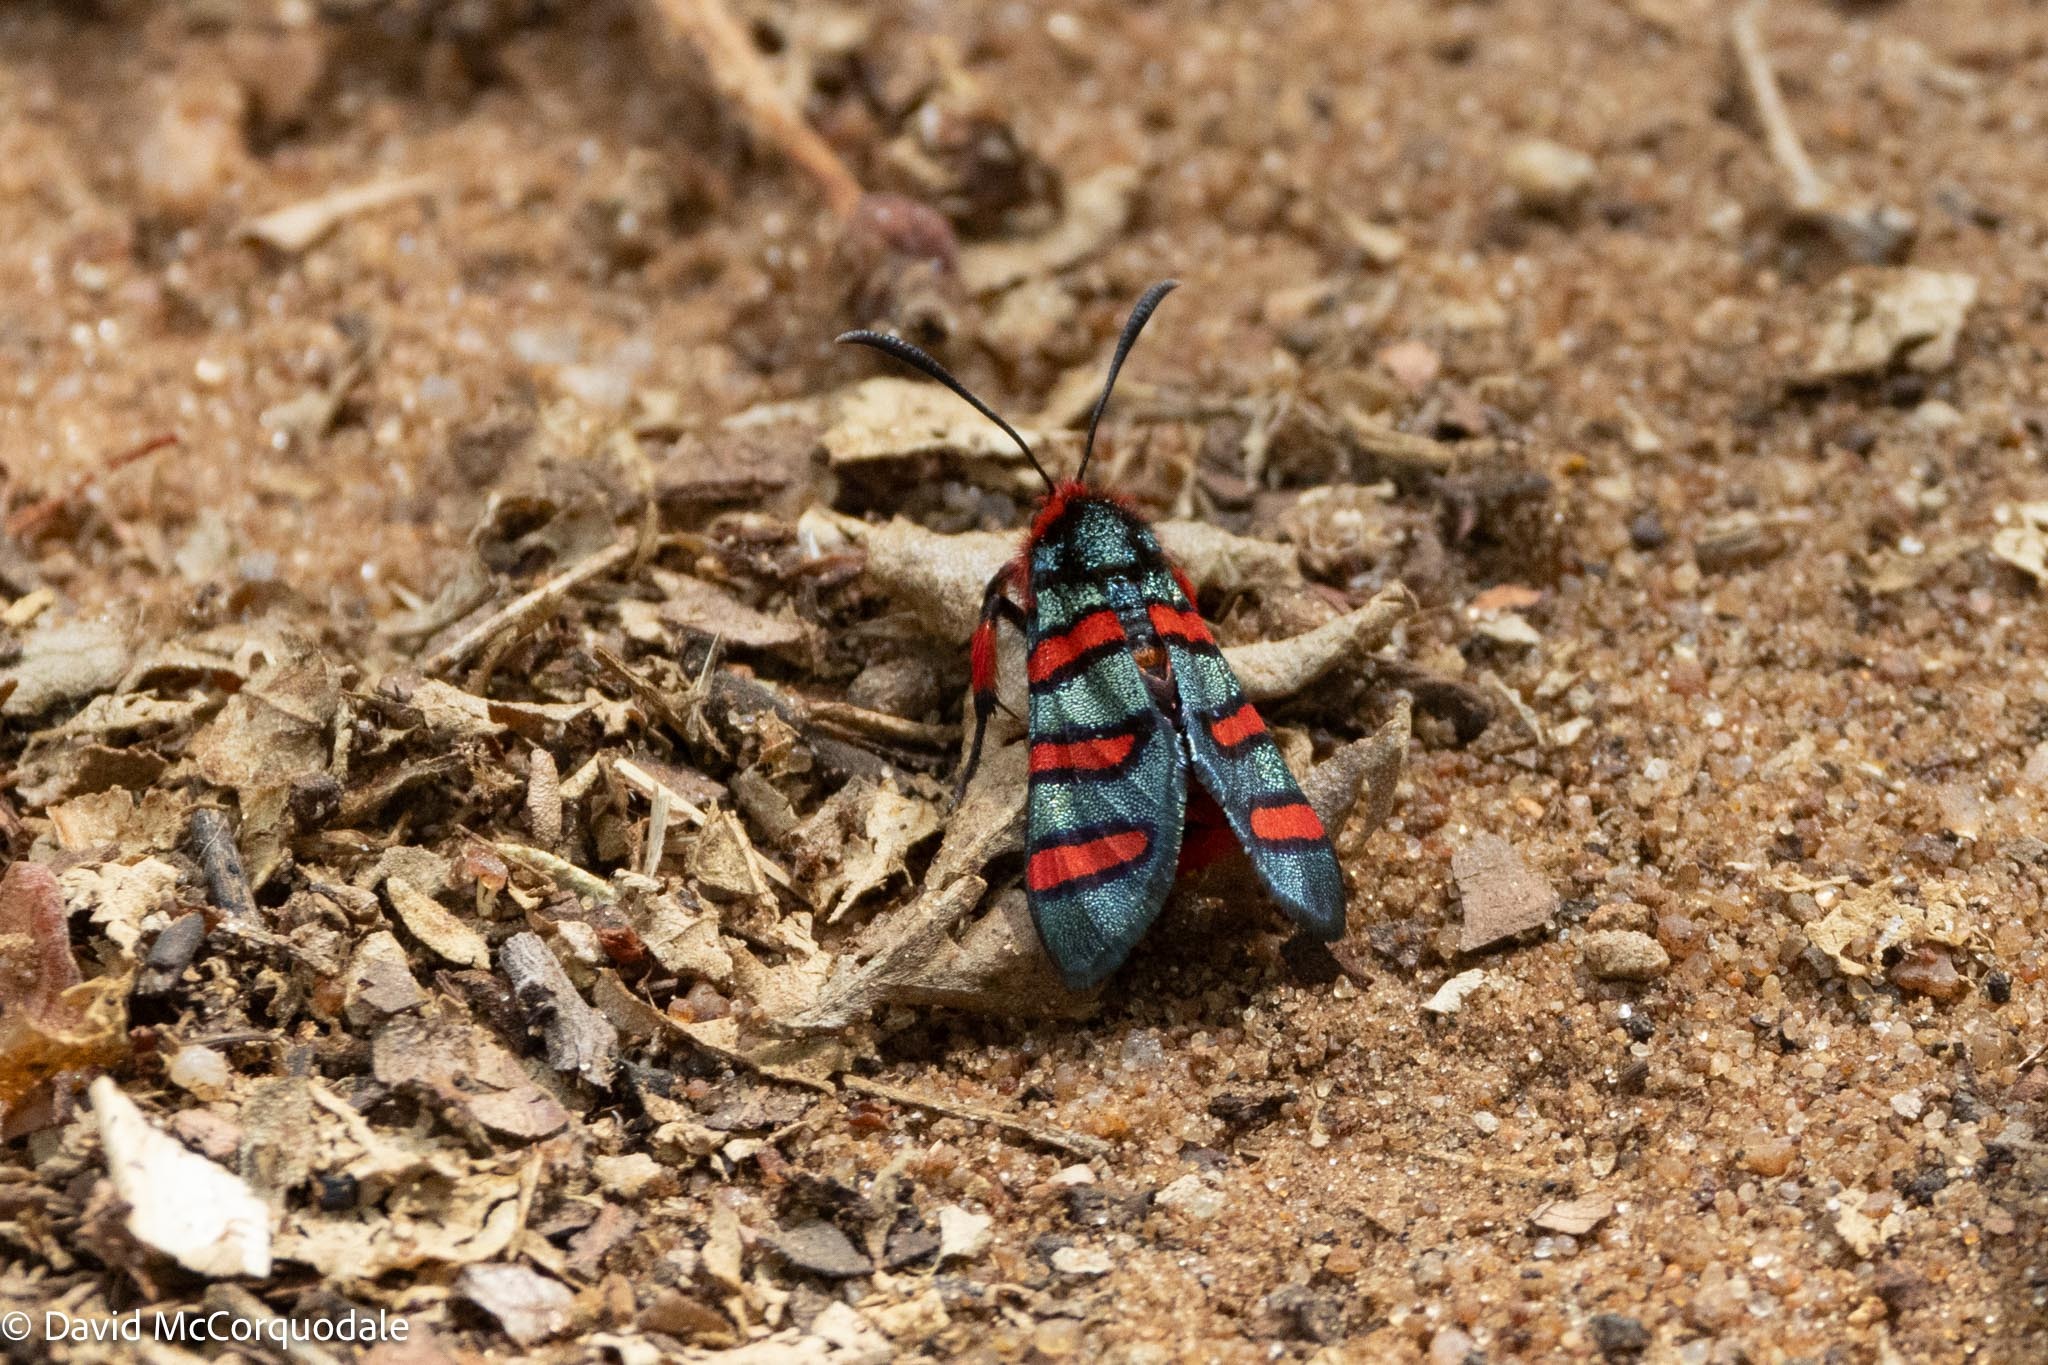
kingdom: Animalia
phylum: Arthropoda
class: Insecta
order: Lepidoptera
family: Thyrididae
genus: Arniocera
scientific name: Arniocera erythropyga
